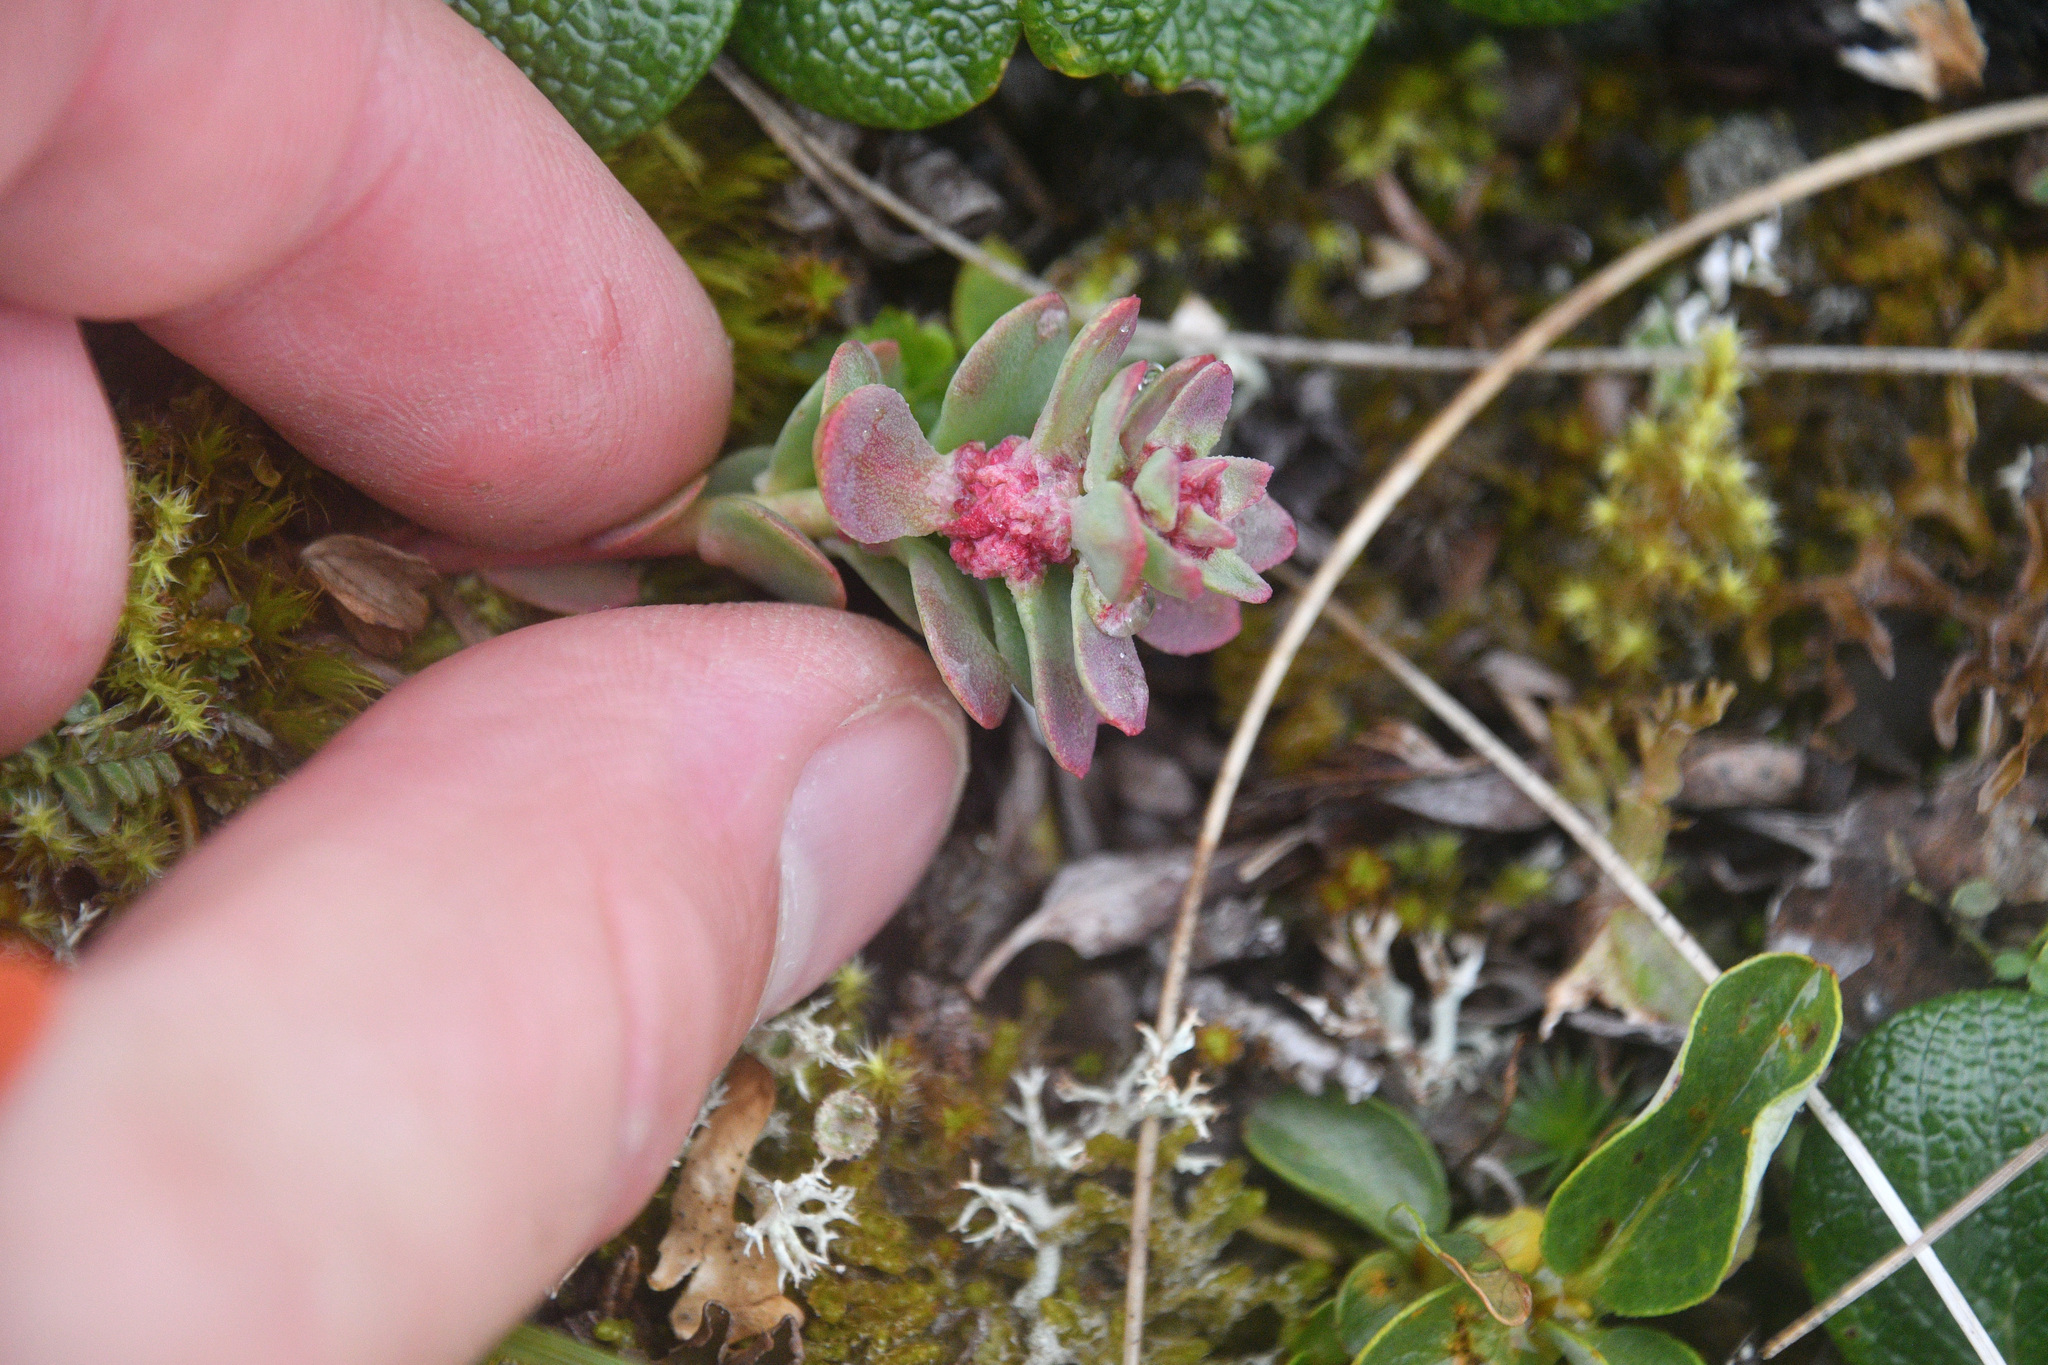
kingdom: Plantae
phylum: Tracheophyta
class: Magnoliopsida
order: Saxifragales
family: Crassulaceae
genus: Rhodiola
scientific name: Rhodiola integrifolia
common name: Western roseroot
